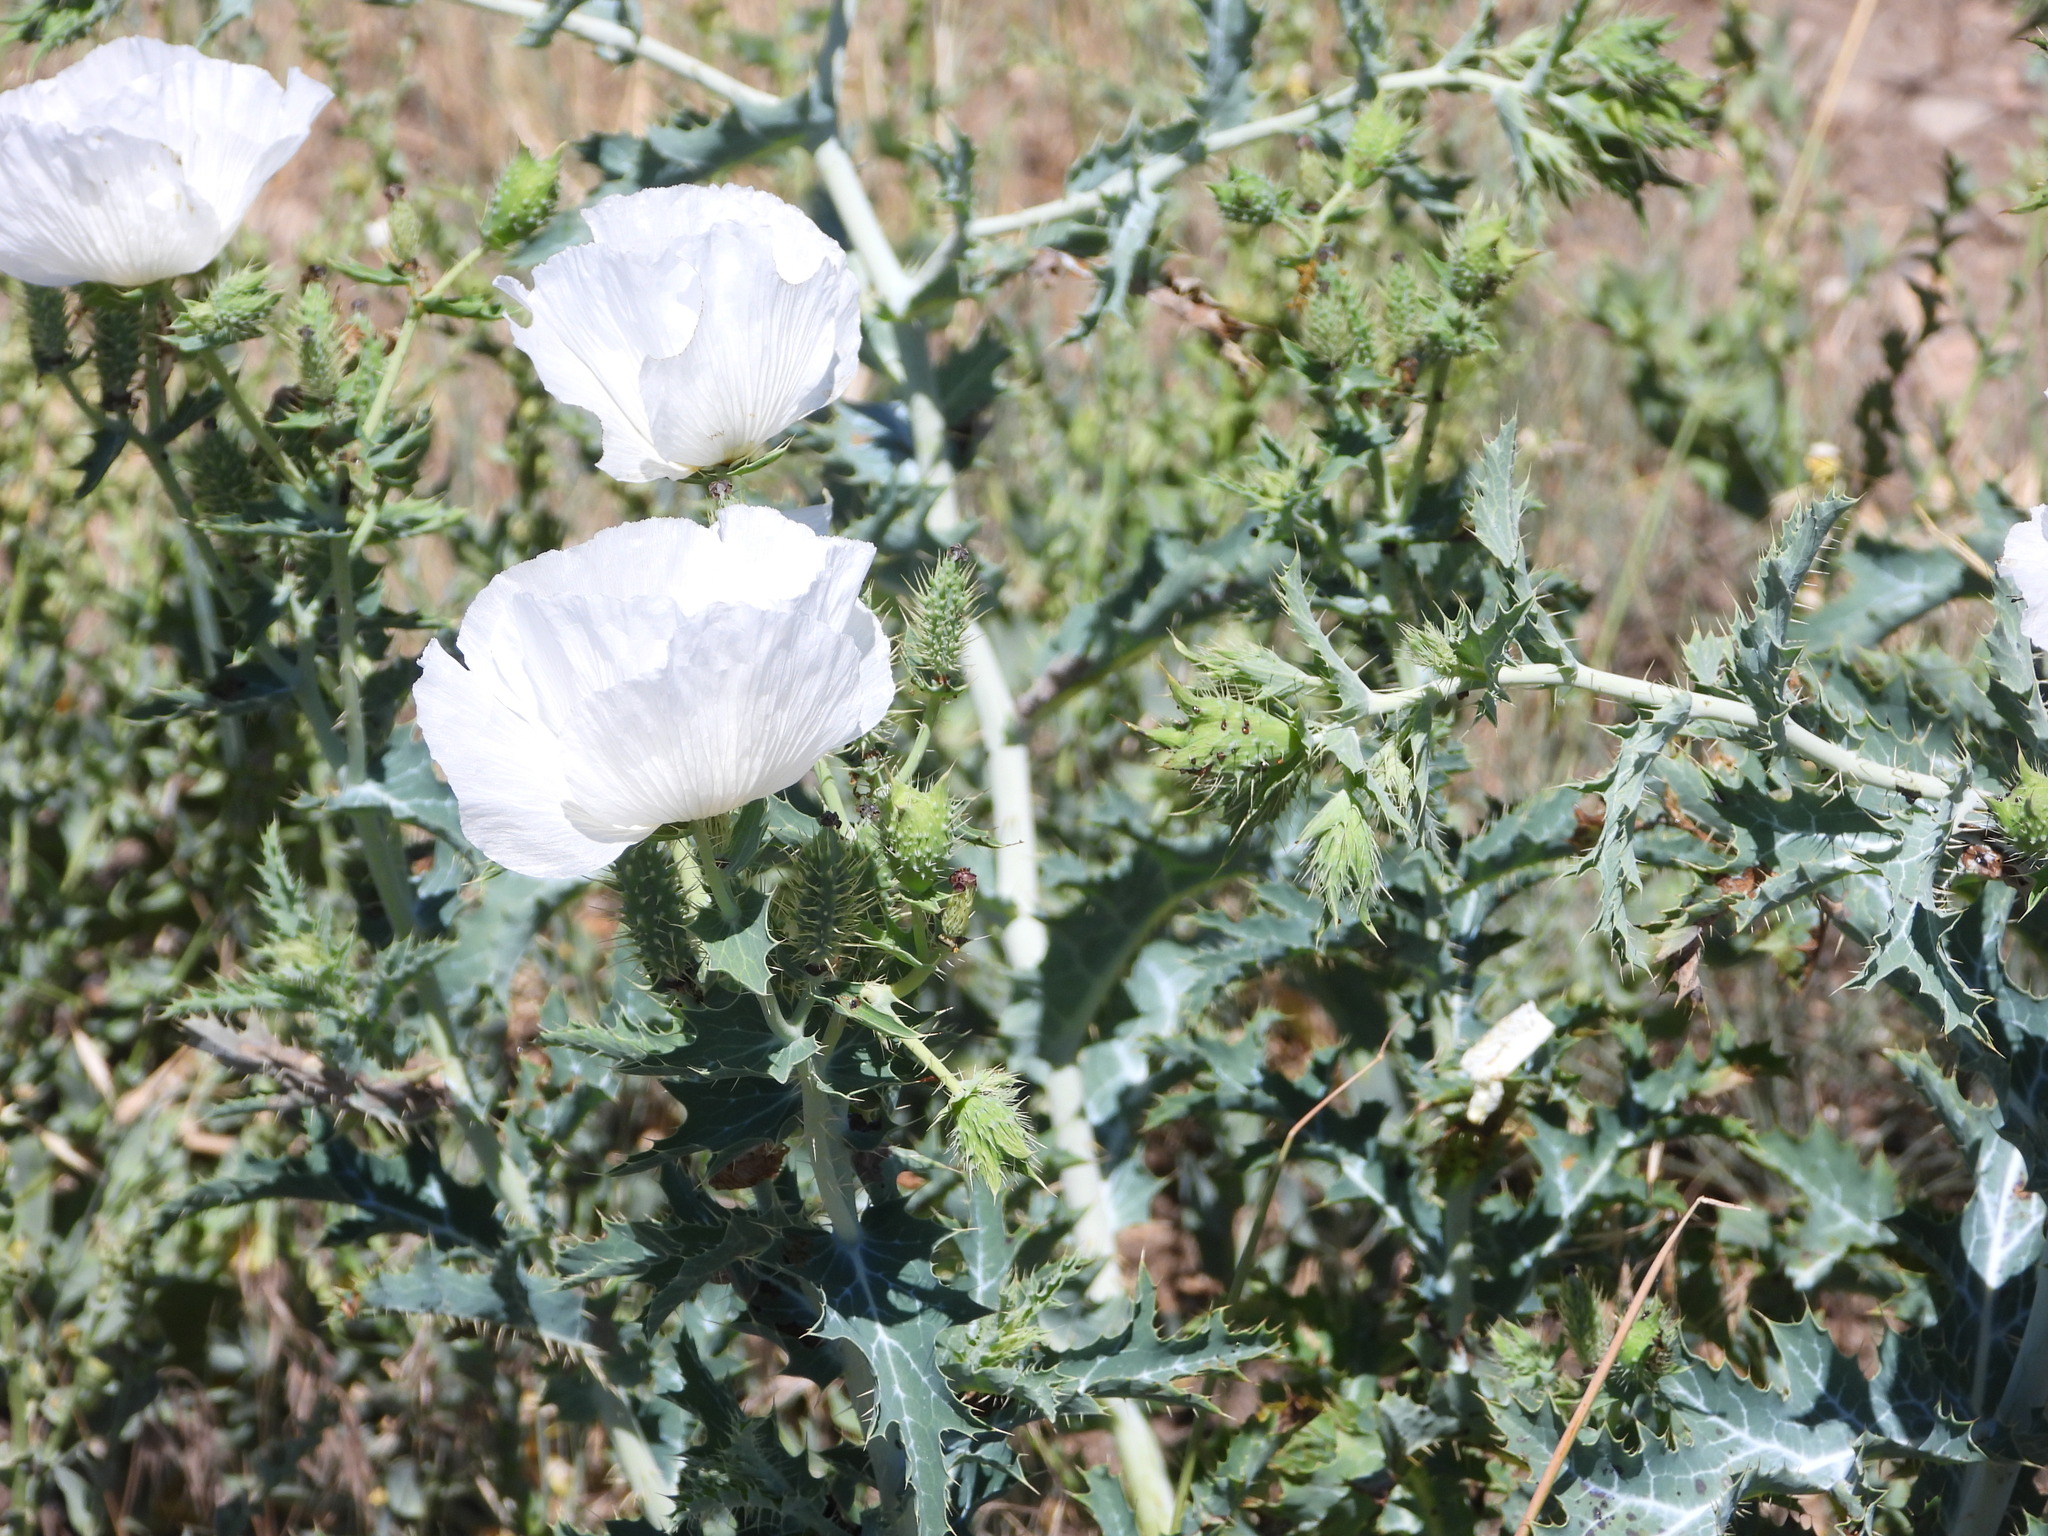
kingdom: Plantae
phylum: Tracheophyta
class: Magnoliopsida
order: Ranunculales
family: Papaveraceae
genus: Argemone
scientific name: Argemone polyanthemos
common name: Plains prickly-poppy
